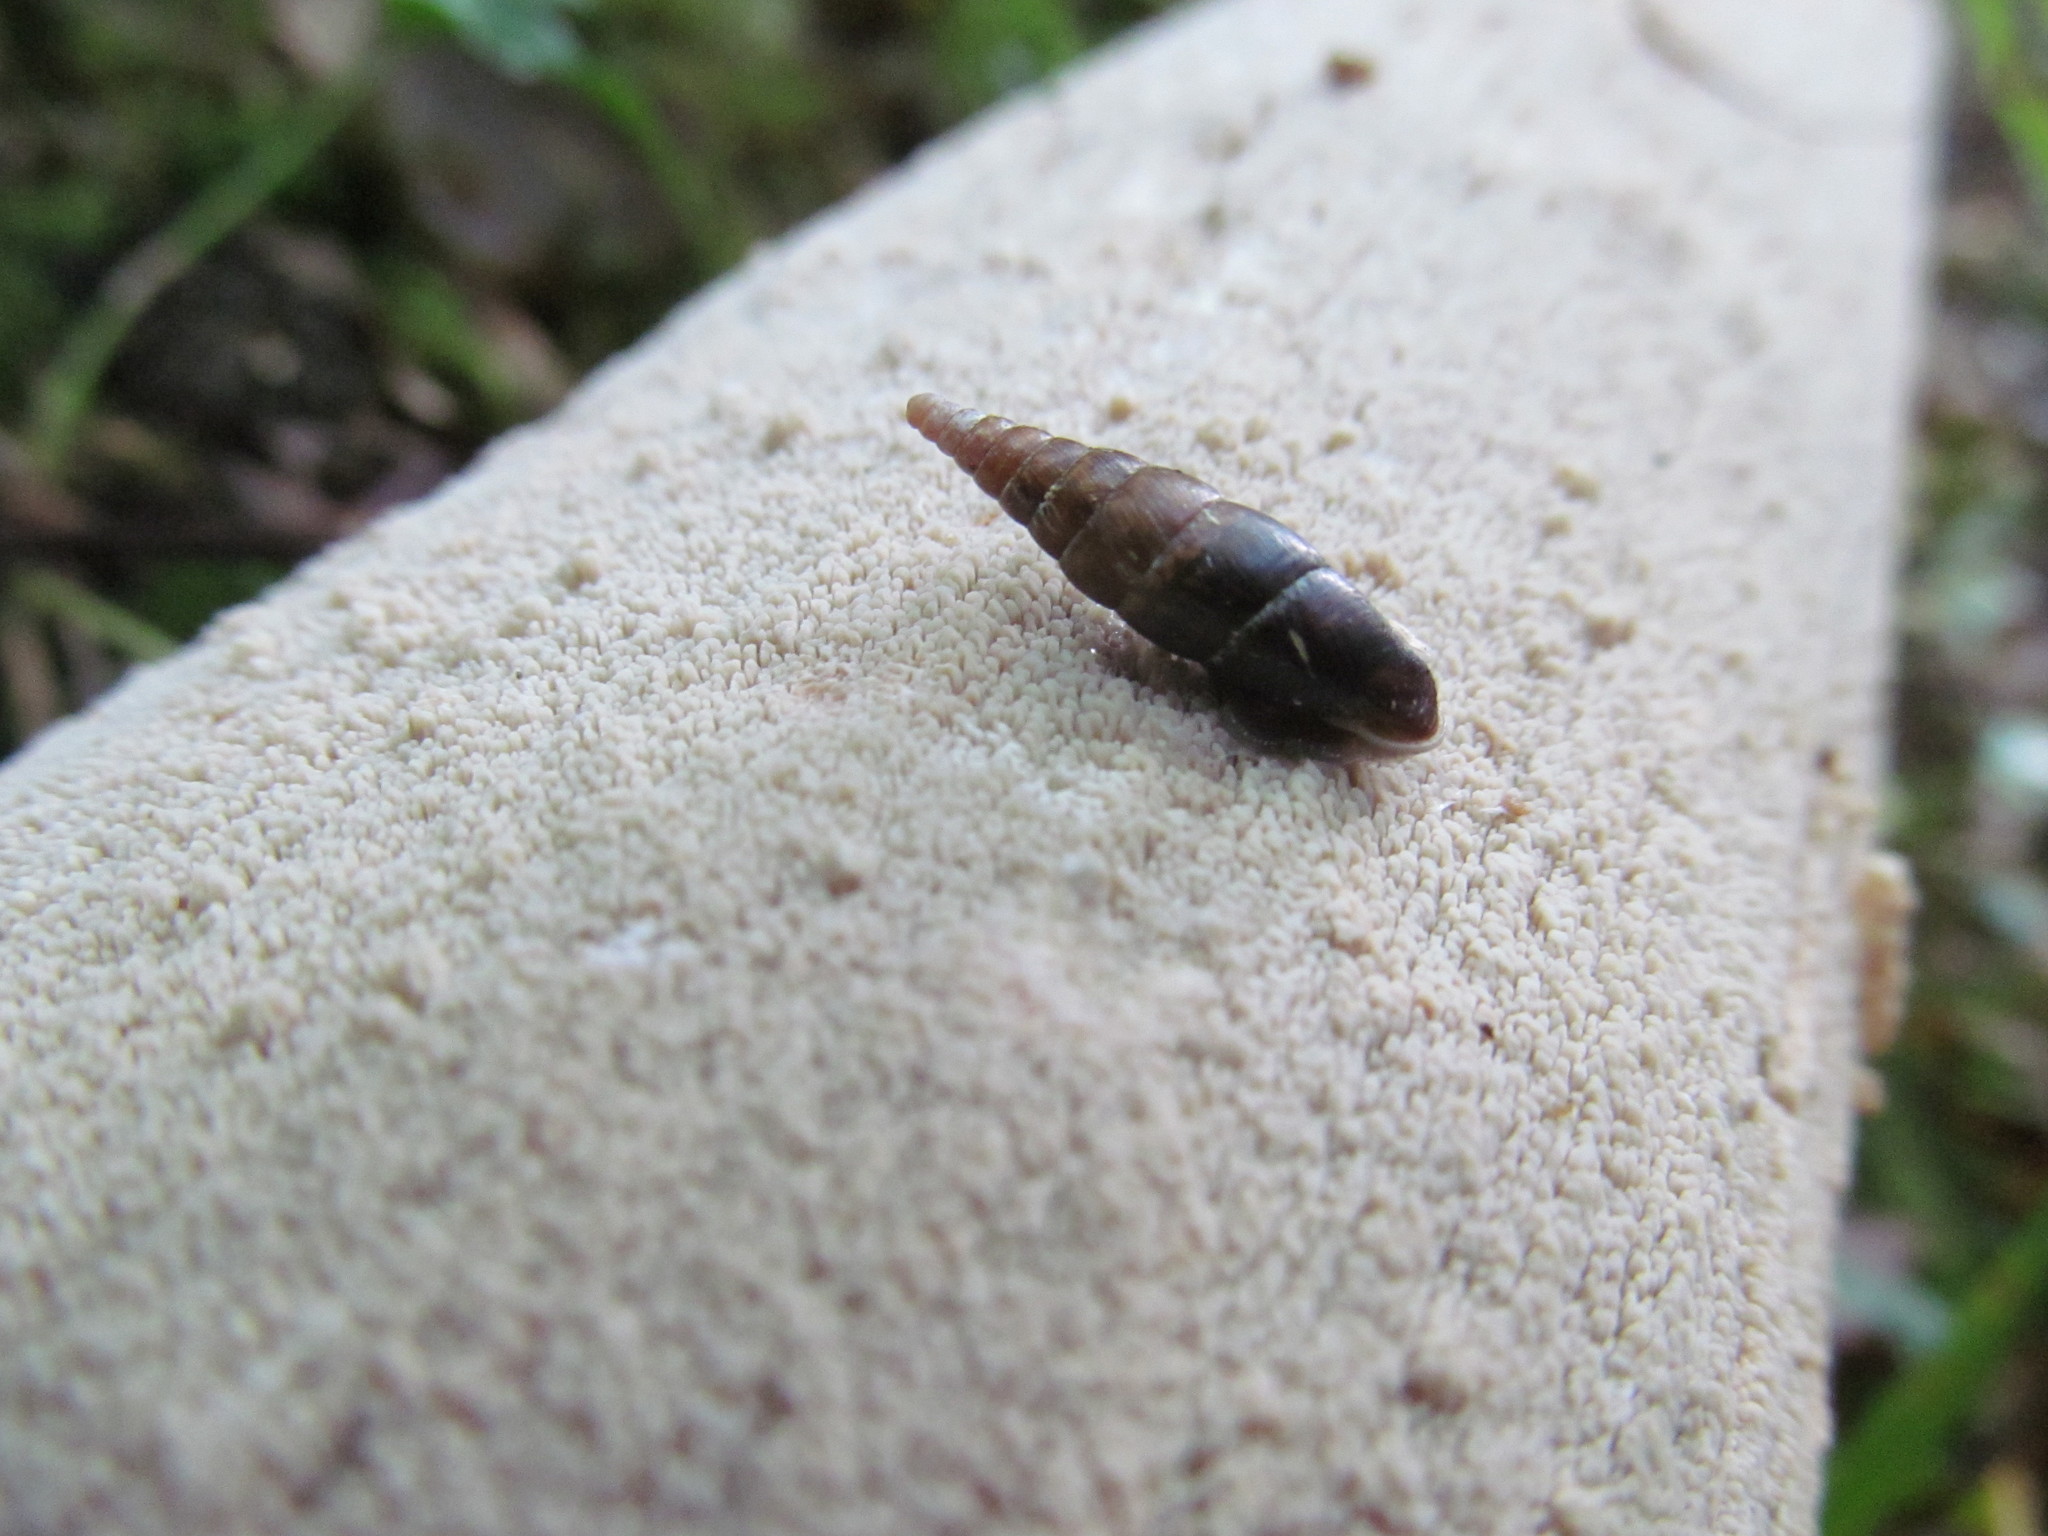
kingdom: Animalia
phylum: Mollusca
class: Gastropoda
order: Stylommatophora
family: Clausiliidae
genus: Cochlodina
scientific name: Cochlodina laminata
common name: Plaited door snail
